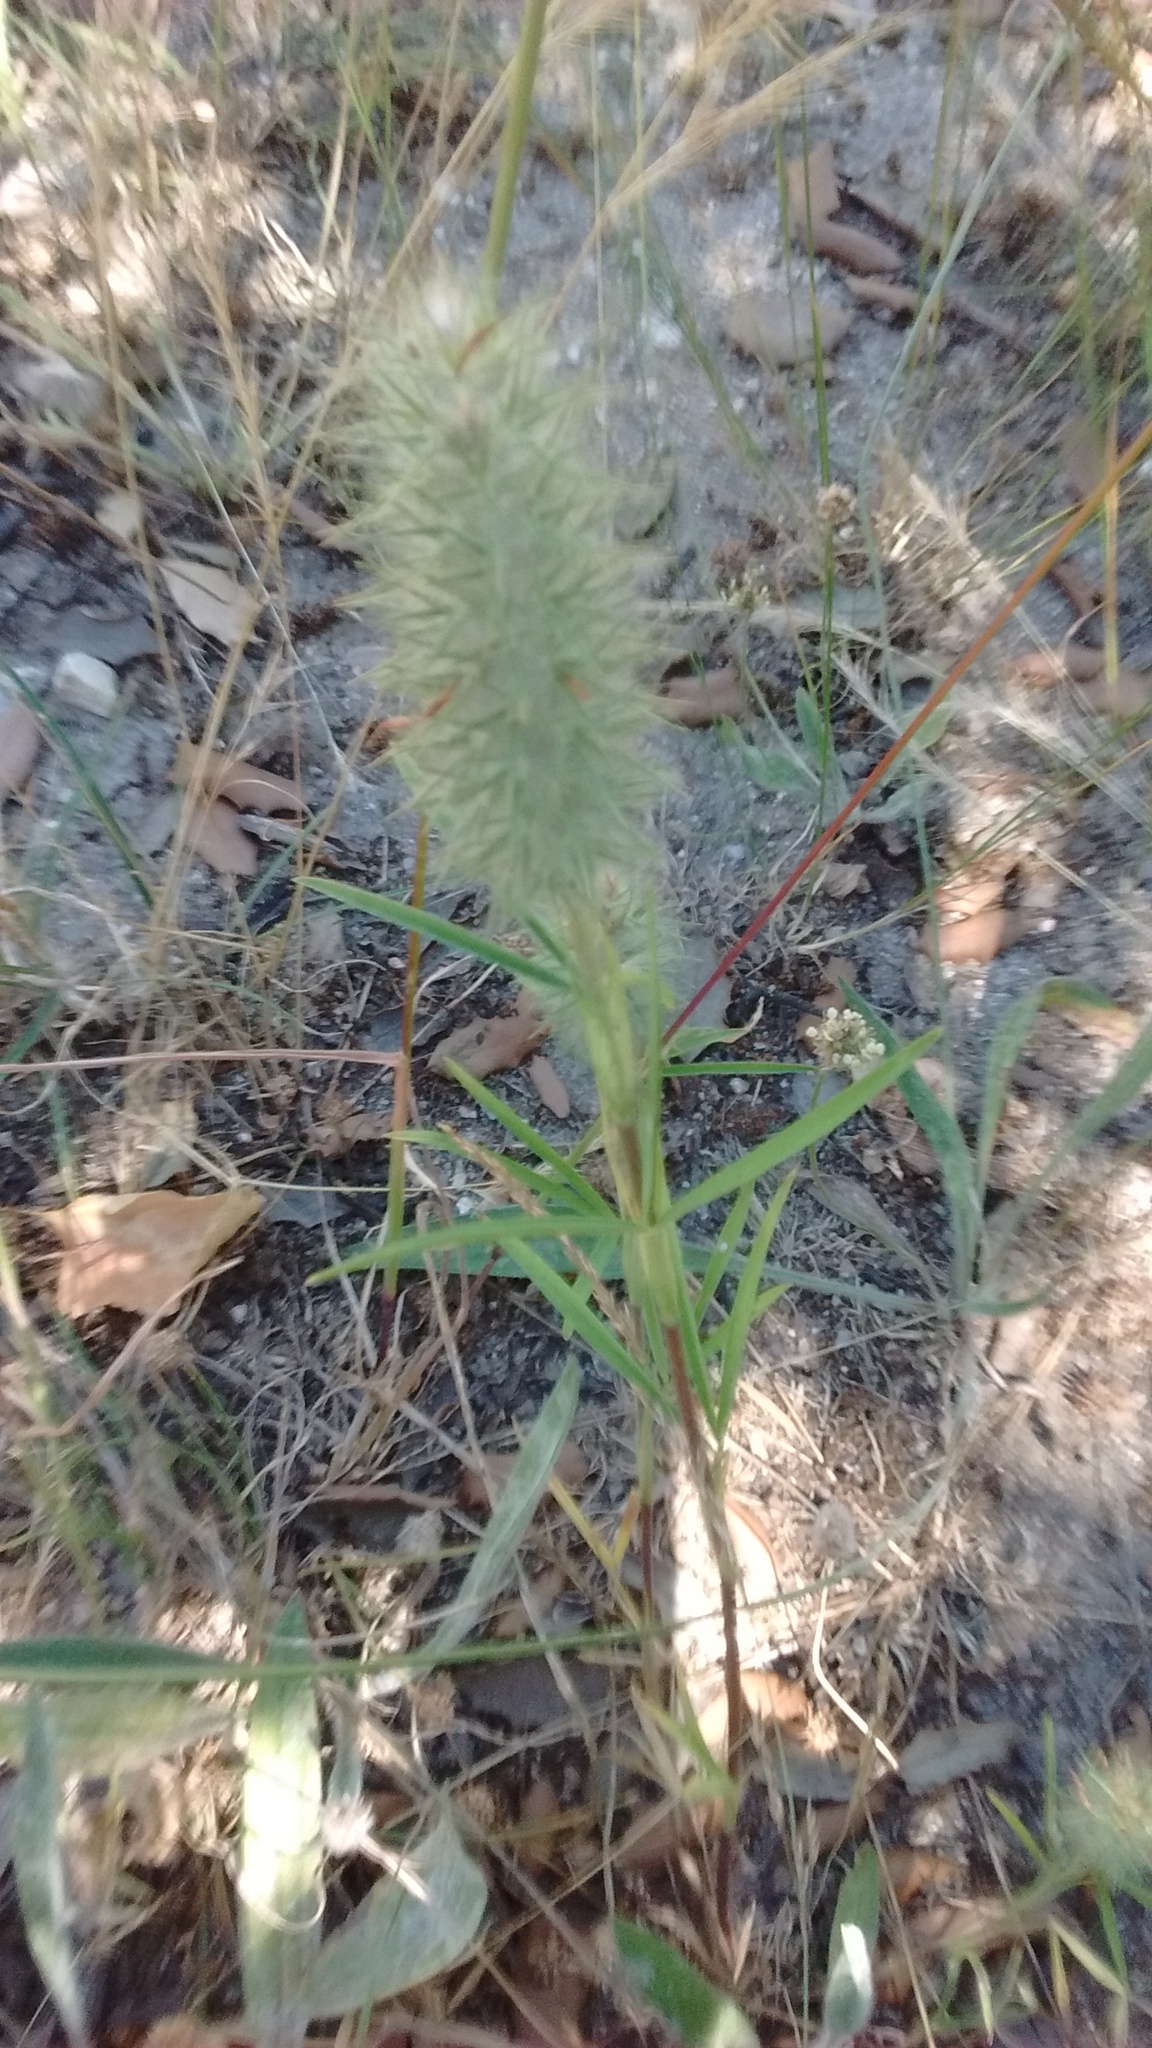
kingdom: Plantae
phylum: Tracheophyta
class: Magnoliopsida
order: Fabales
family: Fabaceae
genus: Trifolium
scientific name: Trifolium angustifolium
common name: Narrow clover
